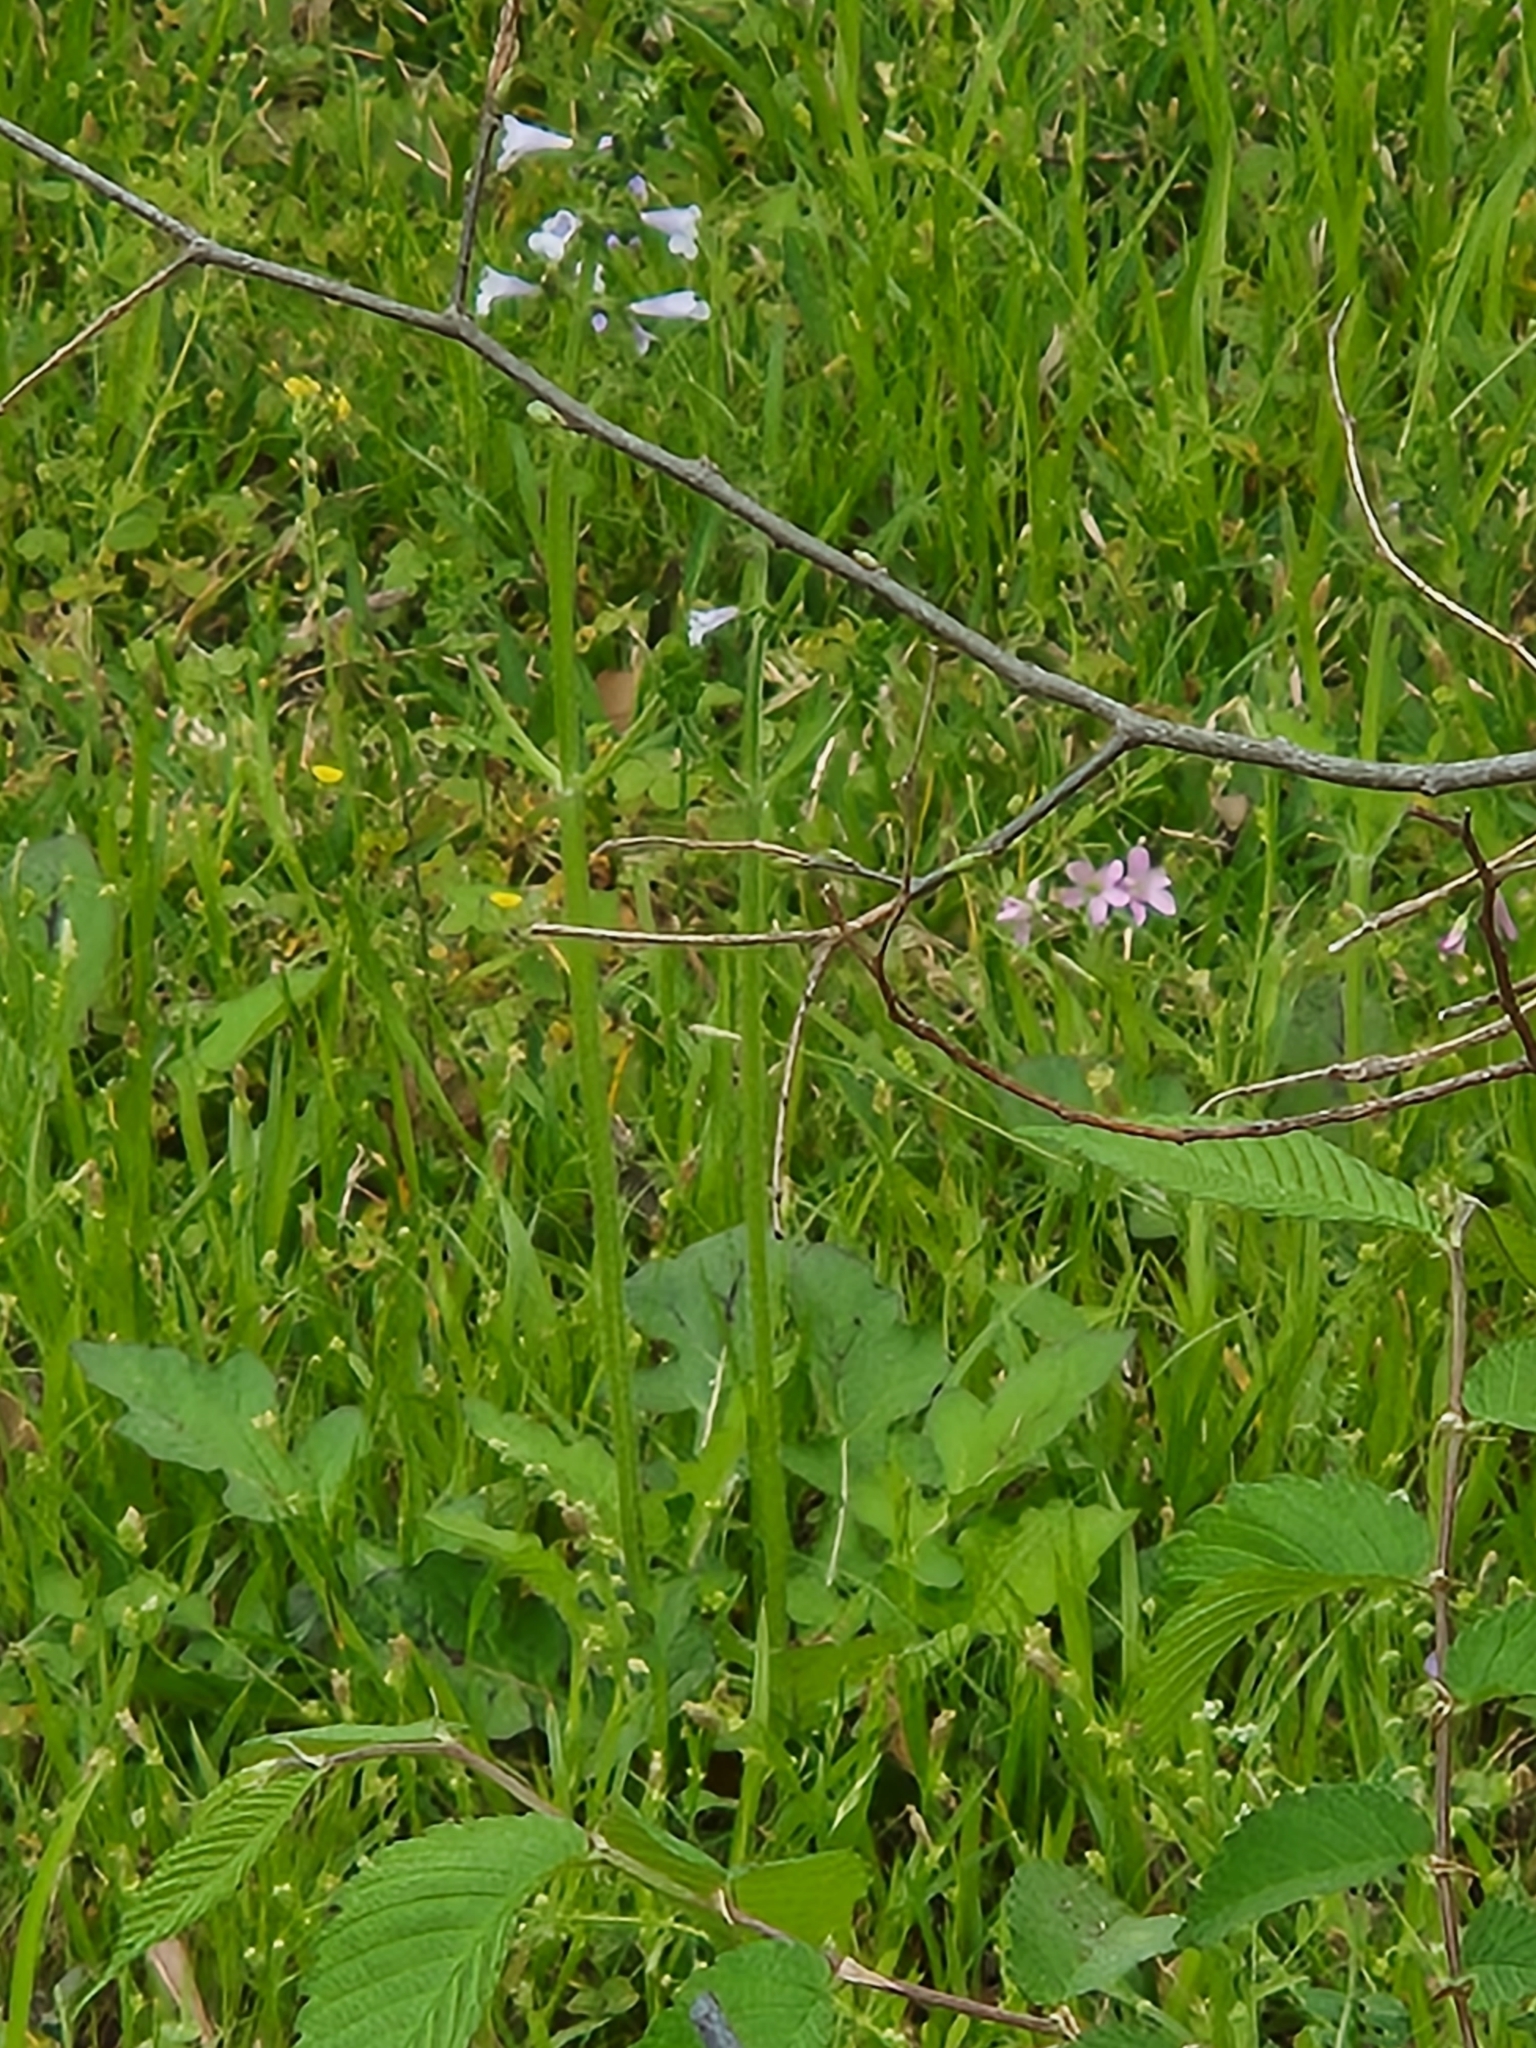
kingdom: Plantae
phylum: Tracheophyta
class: Magnoliopsida
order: Lamiales
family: Lamiaceae
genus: Salvia
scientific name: Salvia lyrata
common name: Cancerweed
